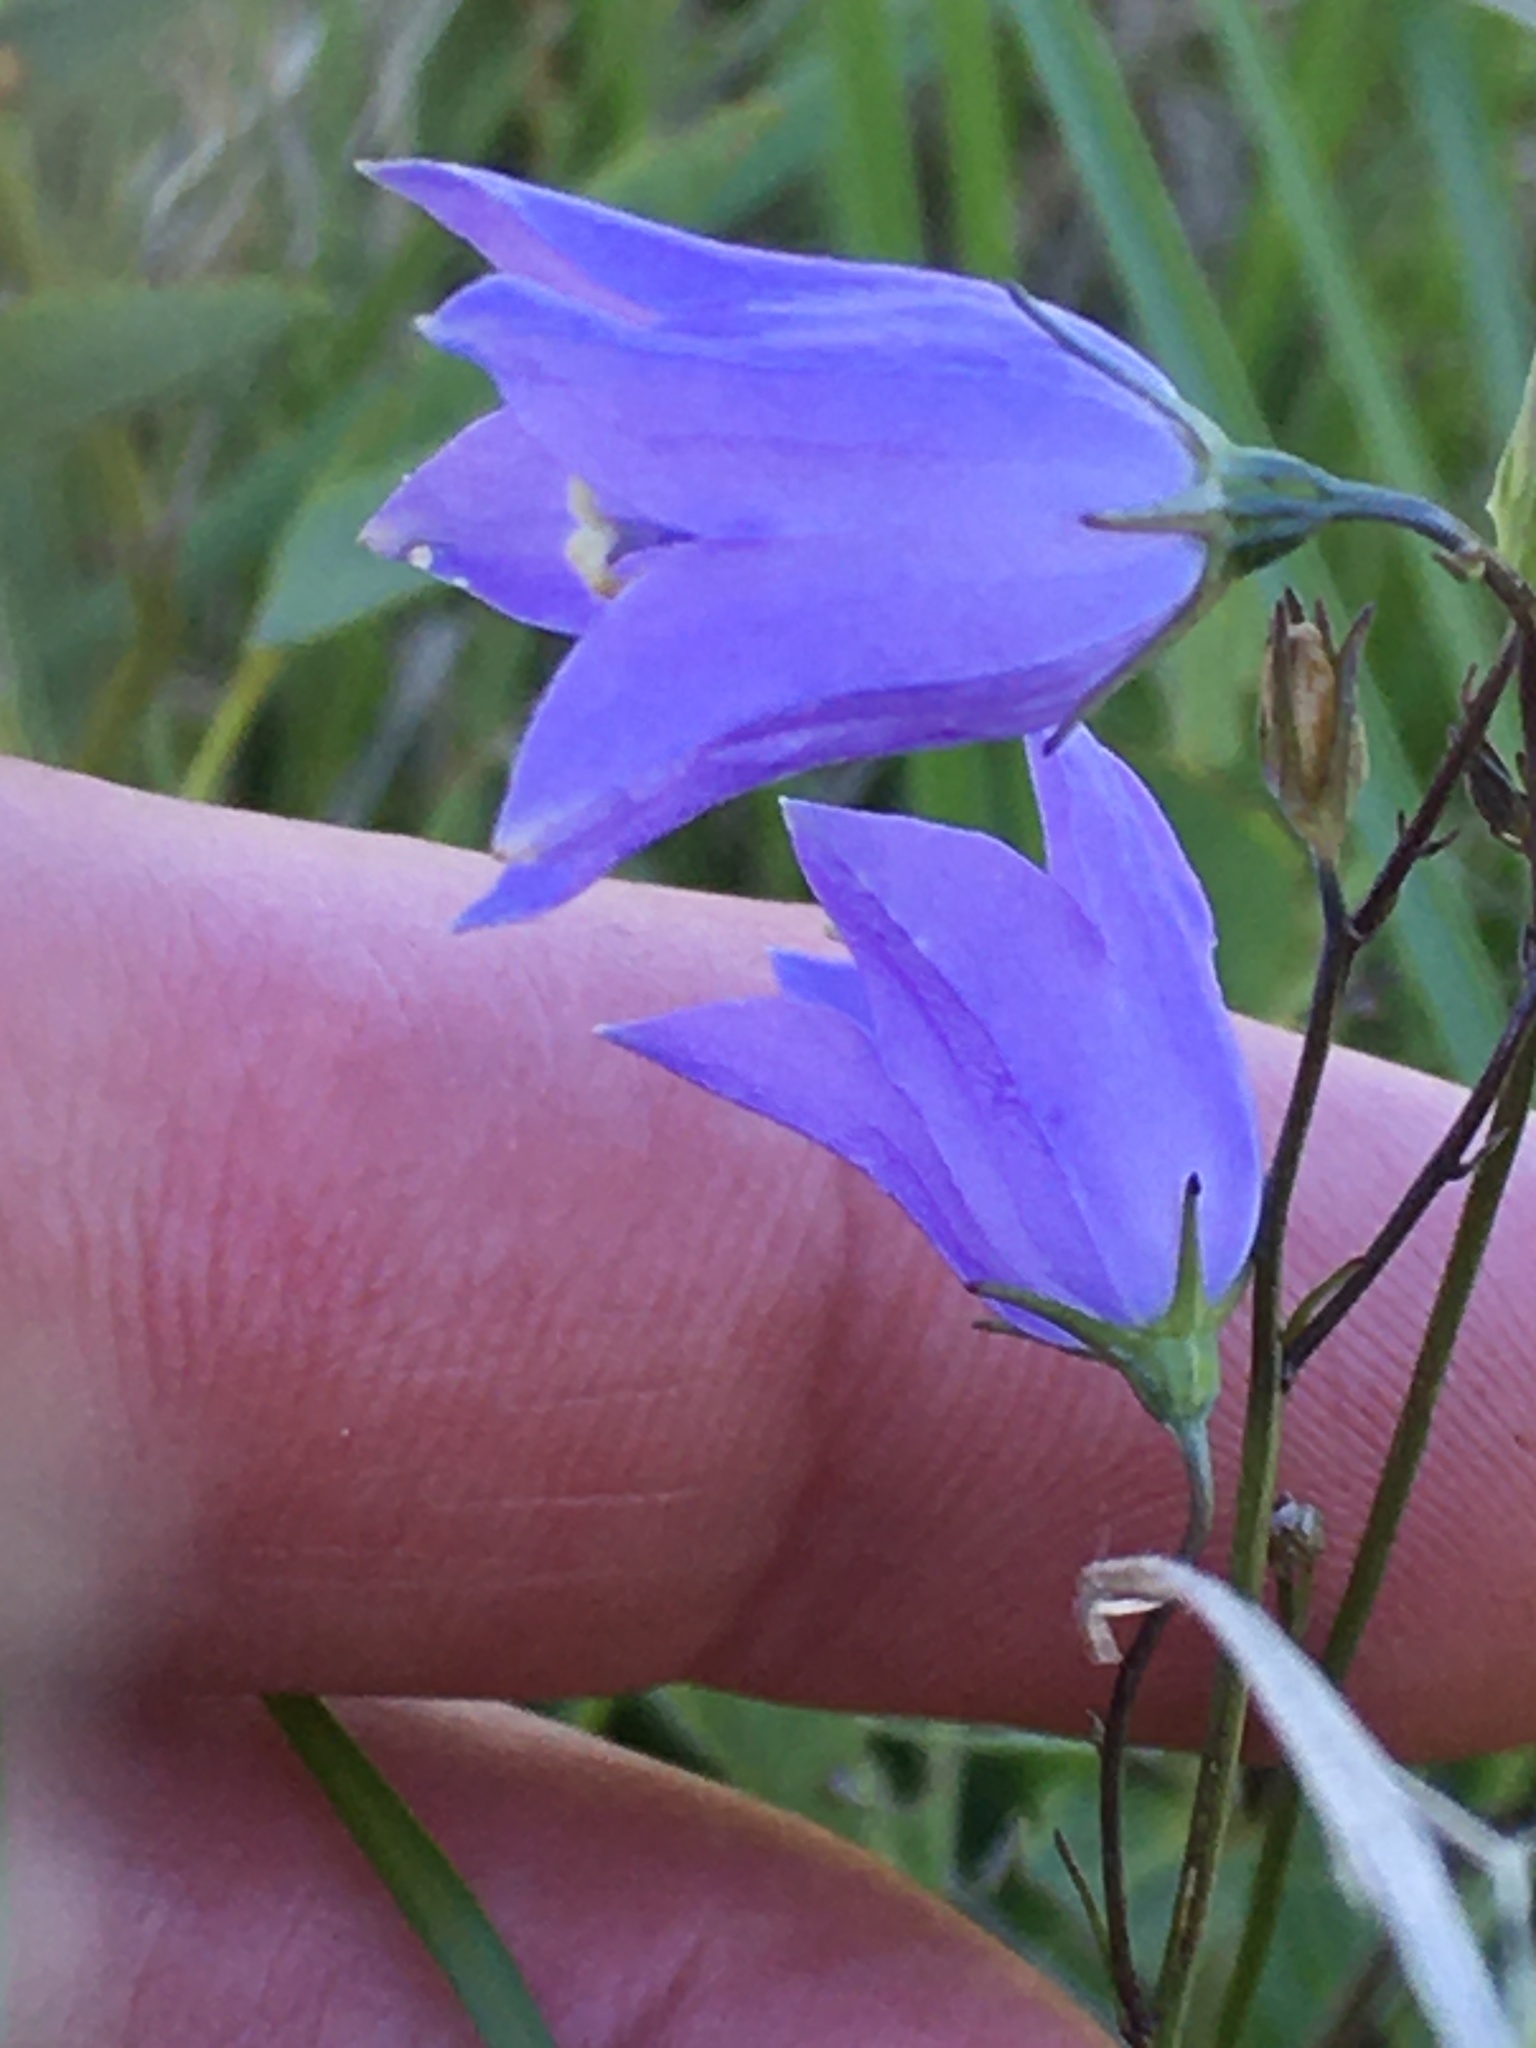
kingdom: Plantae
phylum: Tracheophyta
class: Magnoliopsida
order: Asterales
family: Campanulaceae
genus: Campanula
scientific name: Campanula alaskana
